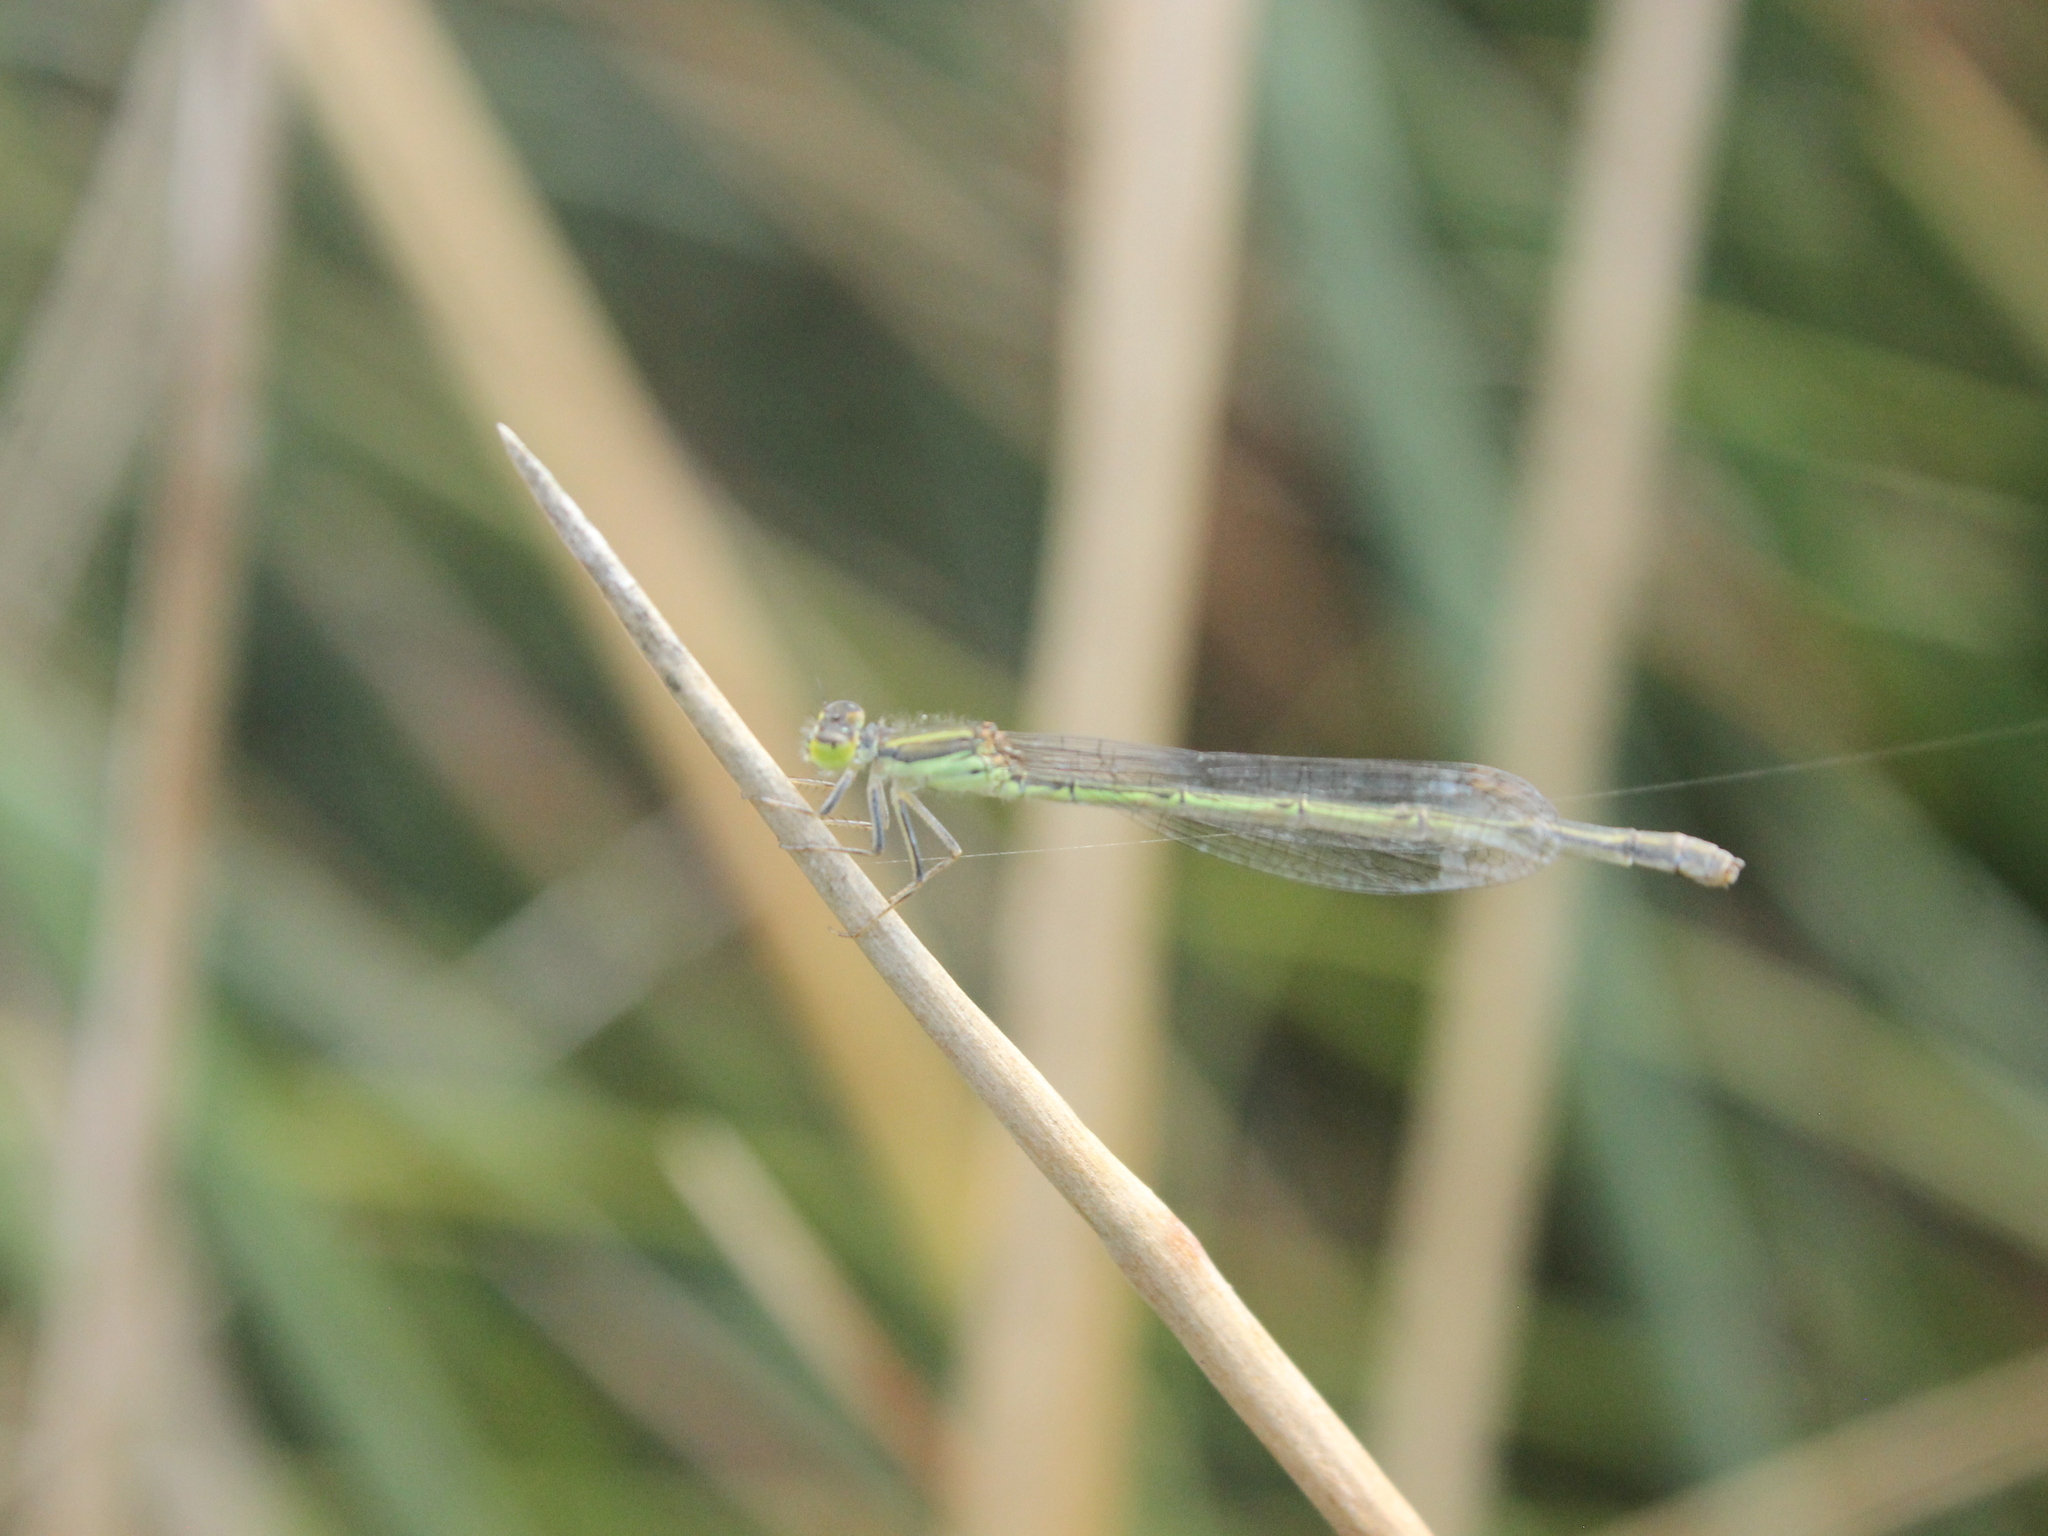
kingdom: Animalia
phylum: Arthropoda
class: Insecta
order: Odonata
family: Coenagrionidae
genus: Ischnura
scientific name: Ischnura aurora
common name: Gossamer damselfly
